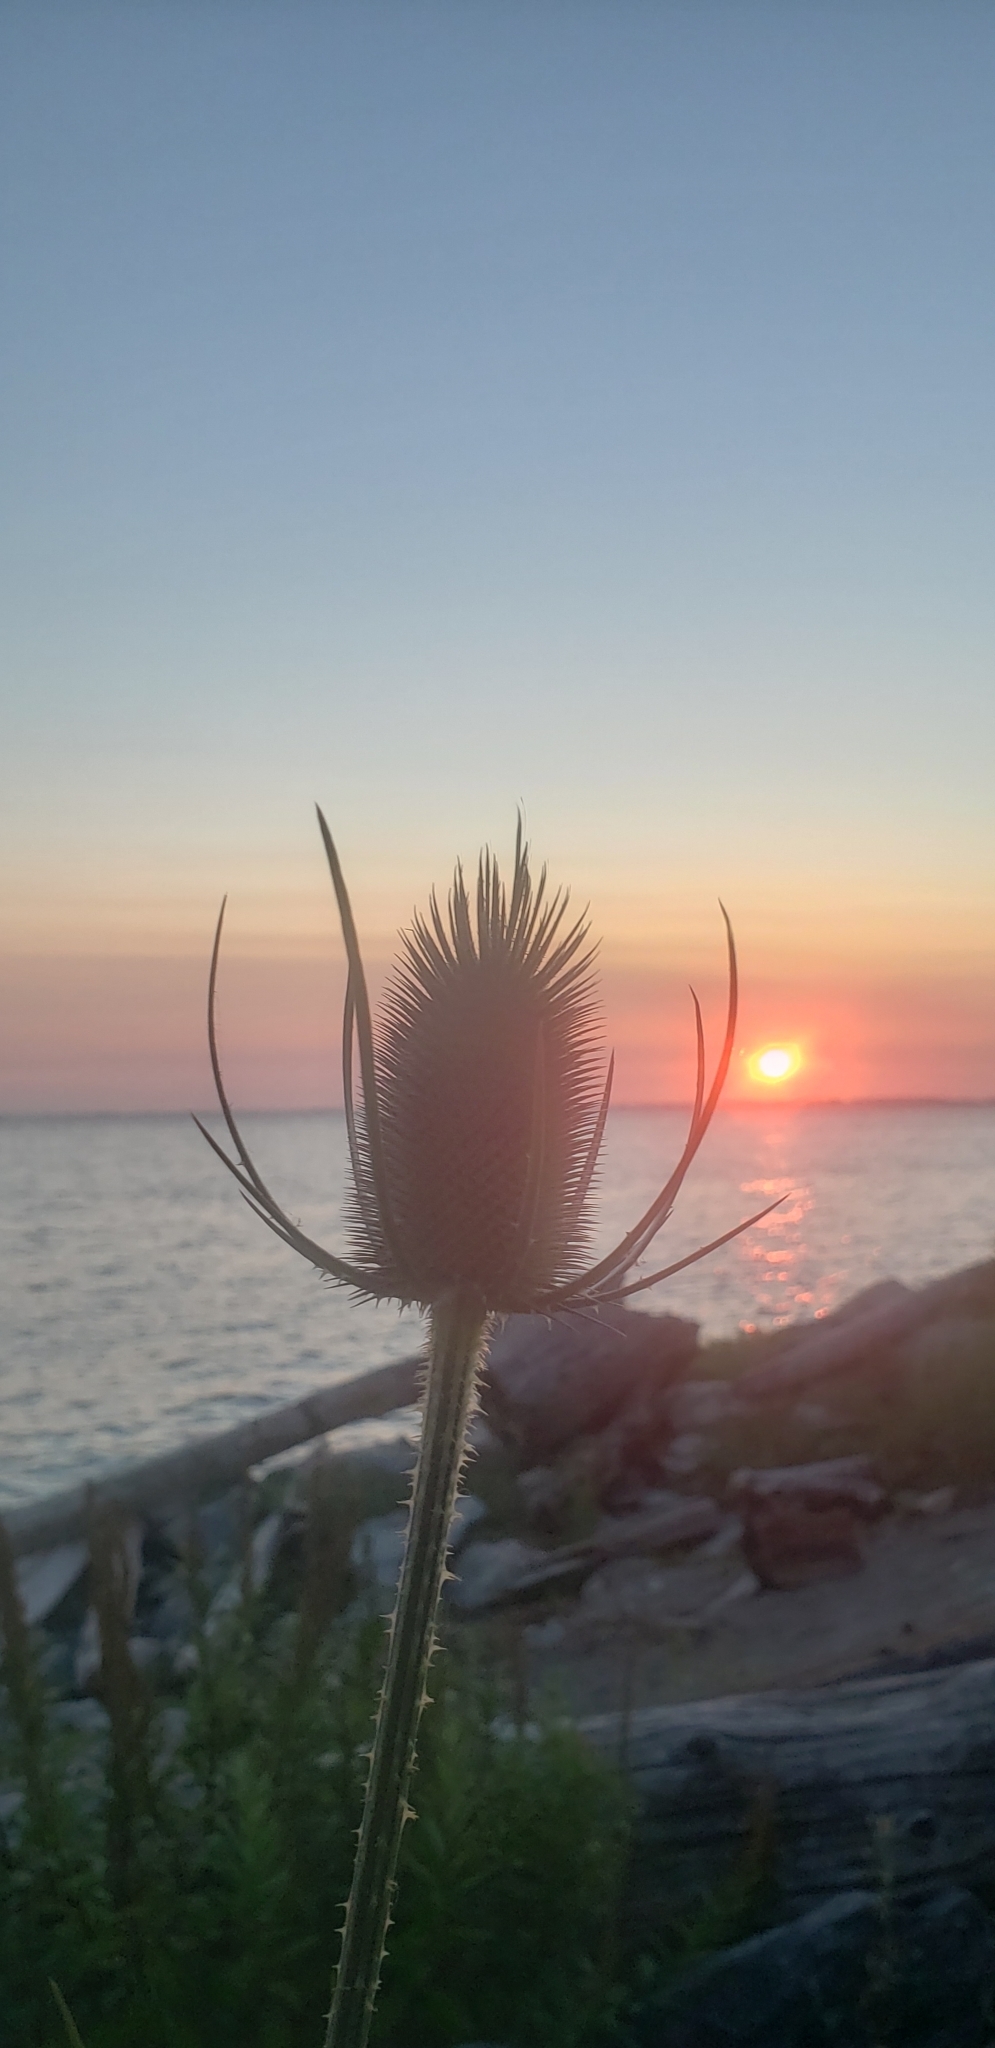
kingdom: Plantae
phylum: Tracheophyta
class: Magnoliopsida
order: Dipsacales
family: Caprifoliaceae
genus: Dipsacus
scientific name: Dipsacus fullonum
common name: Teasel
